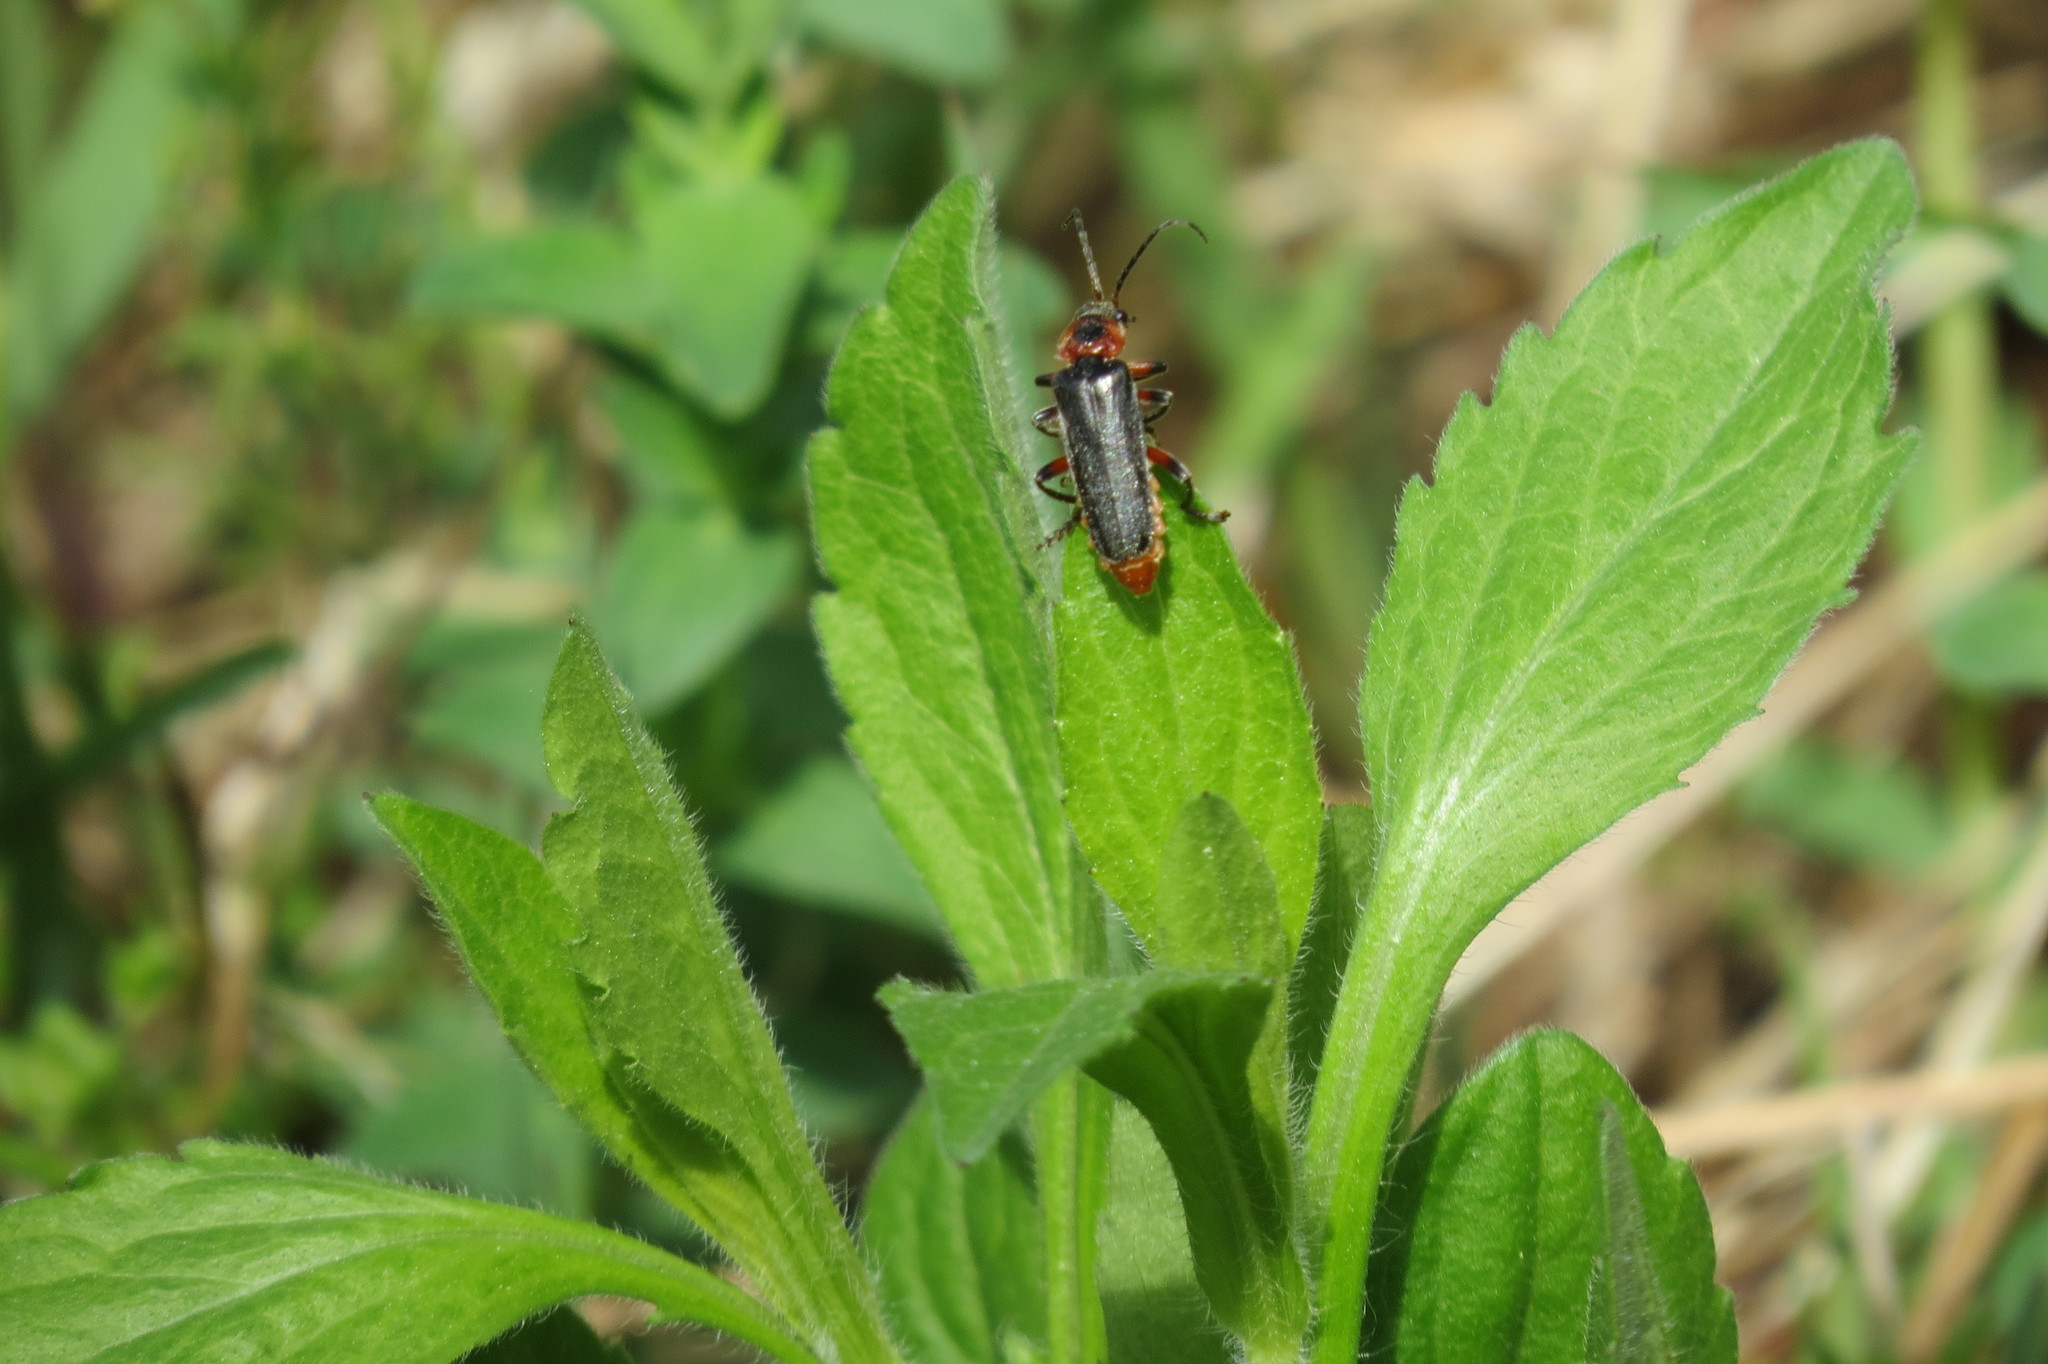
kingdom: Animalia
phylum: Arthropoda
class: Insecta
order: Coleoptera
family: Cantharidae
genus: Cantharis
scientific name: Cantharis rustica
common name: Soldier beetle
